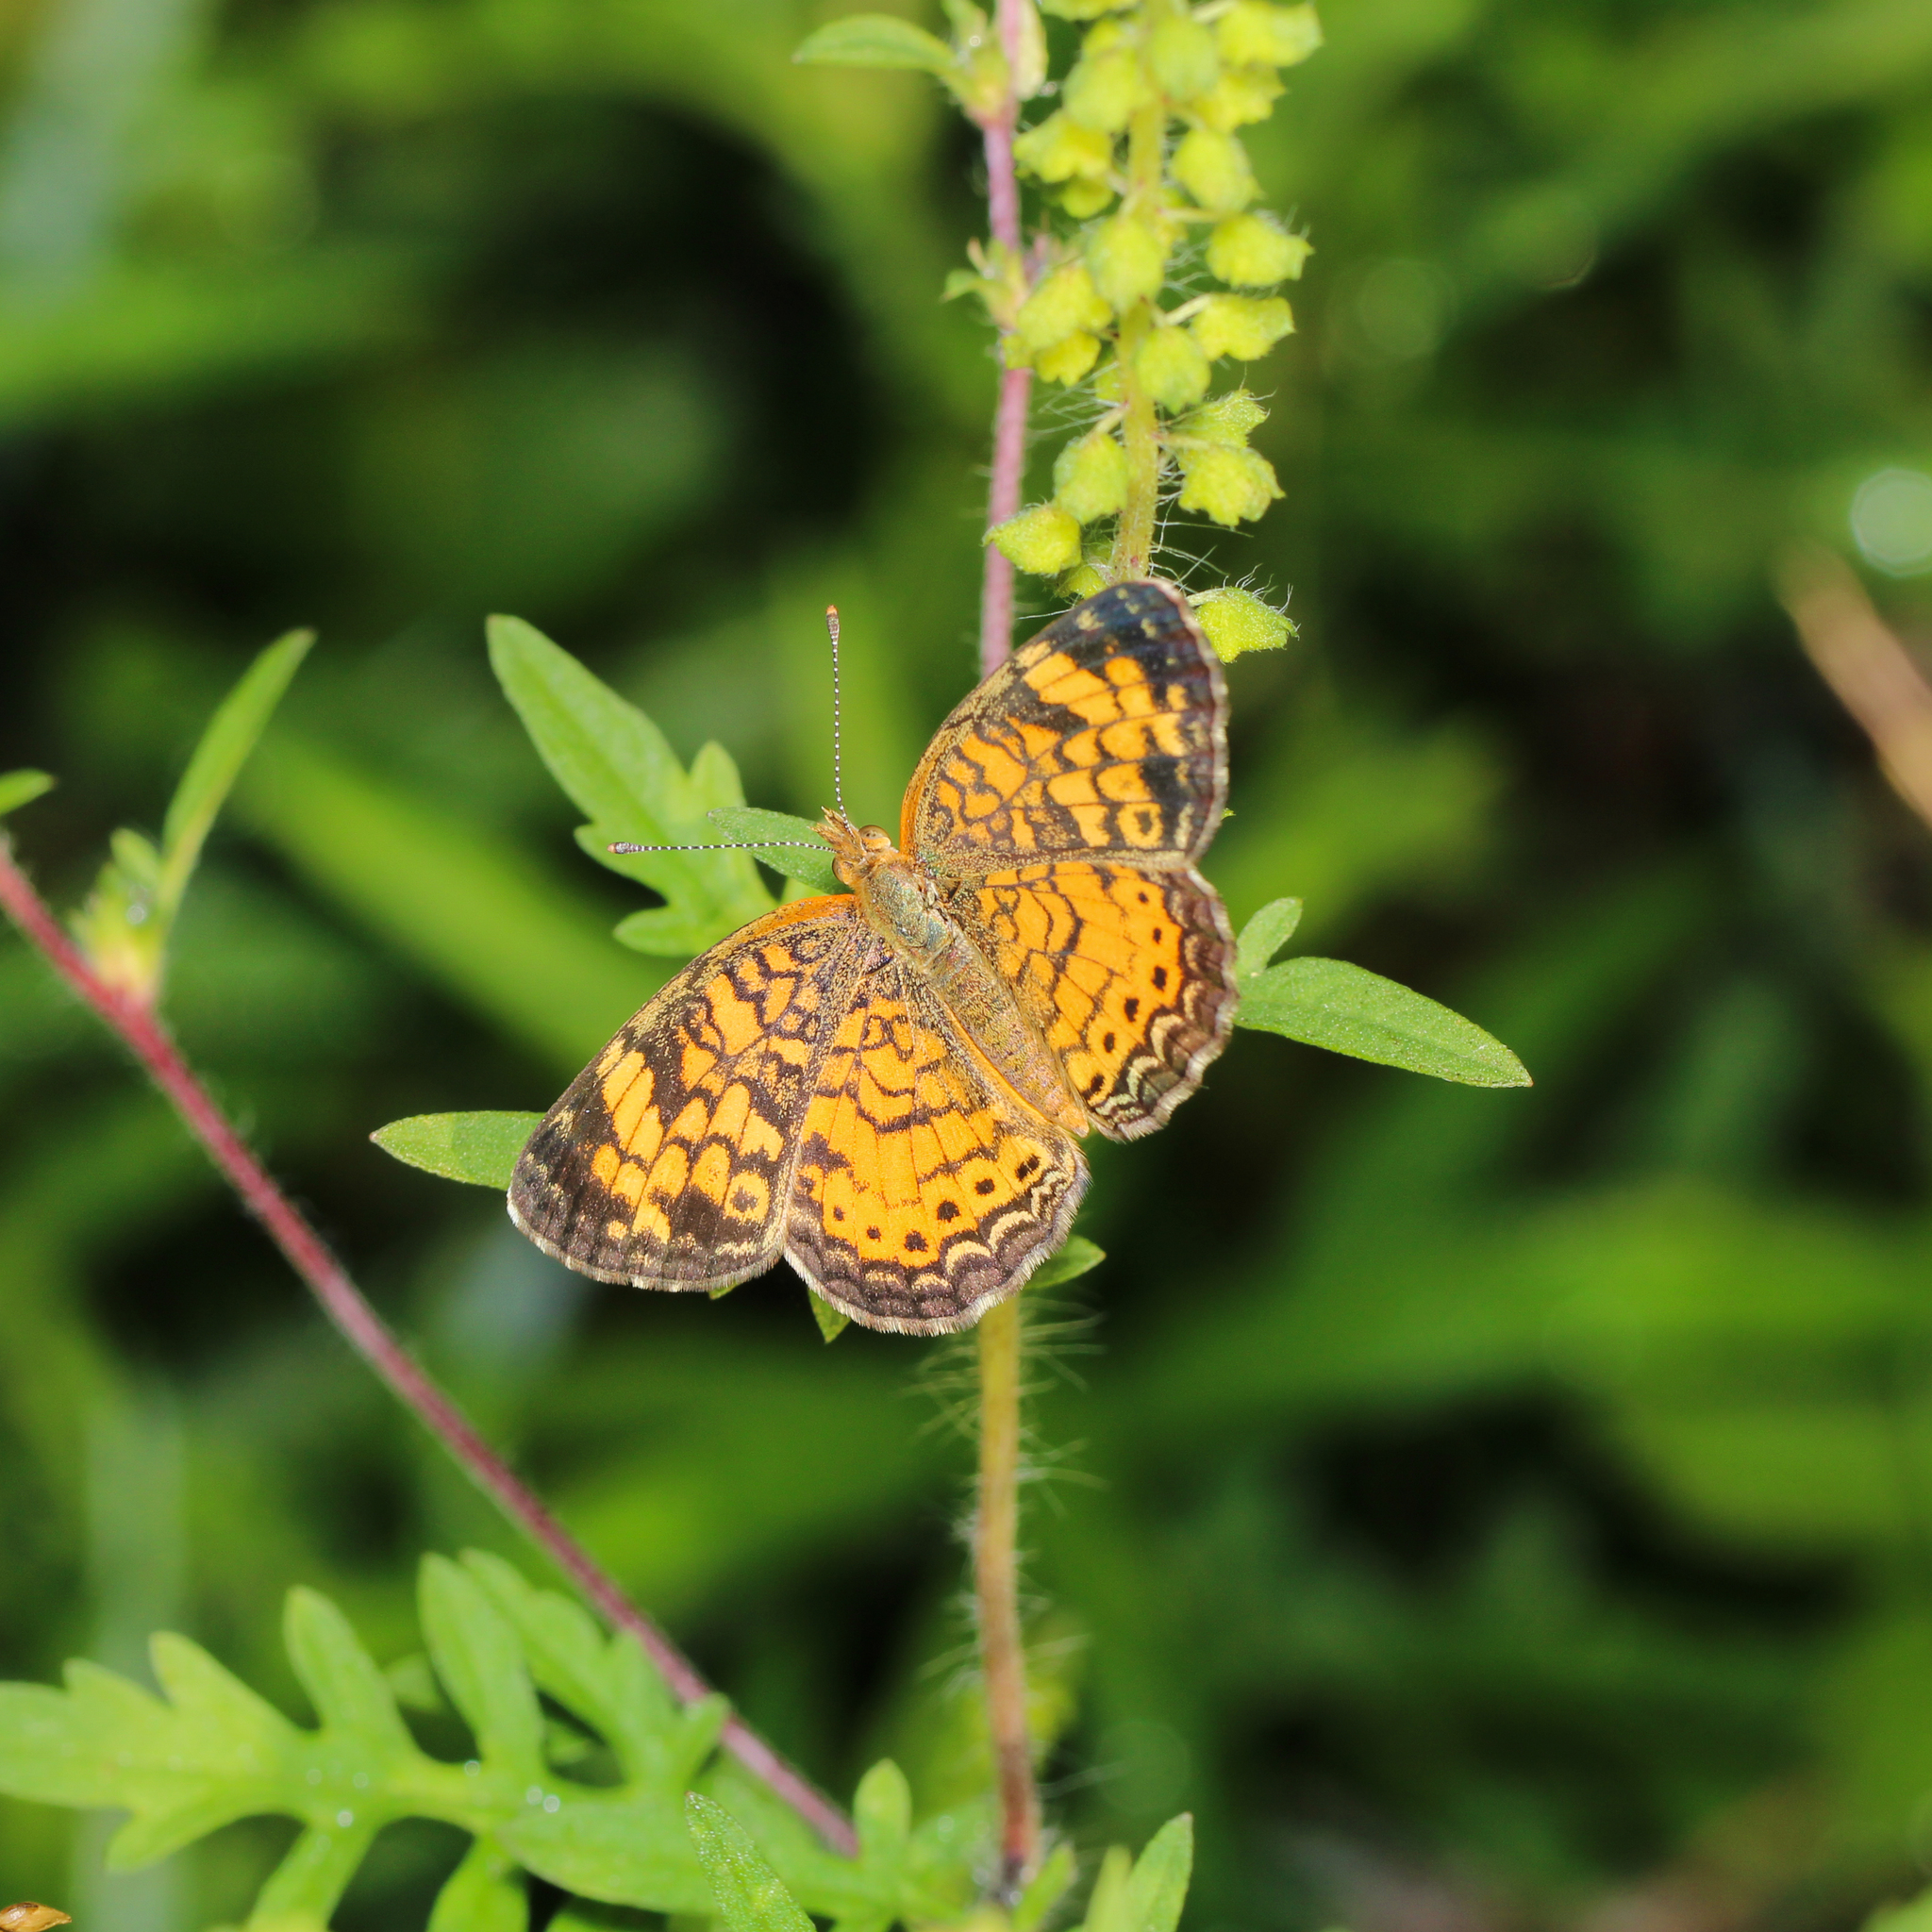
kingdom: Animalia
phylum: Arthropoda
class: Insecta
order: Lepidoptera
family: Nymphalidae
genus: Phyciodes
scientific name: Phyciodes tharos
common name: Pearl crescent
